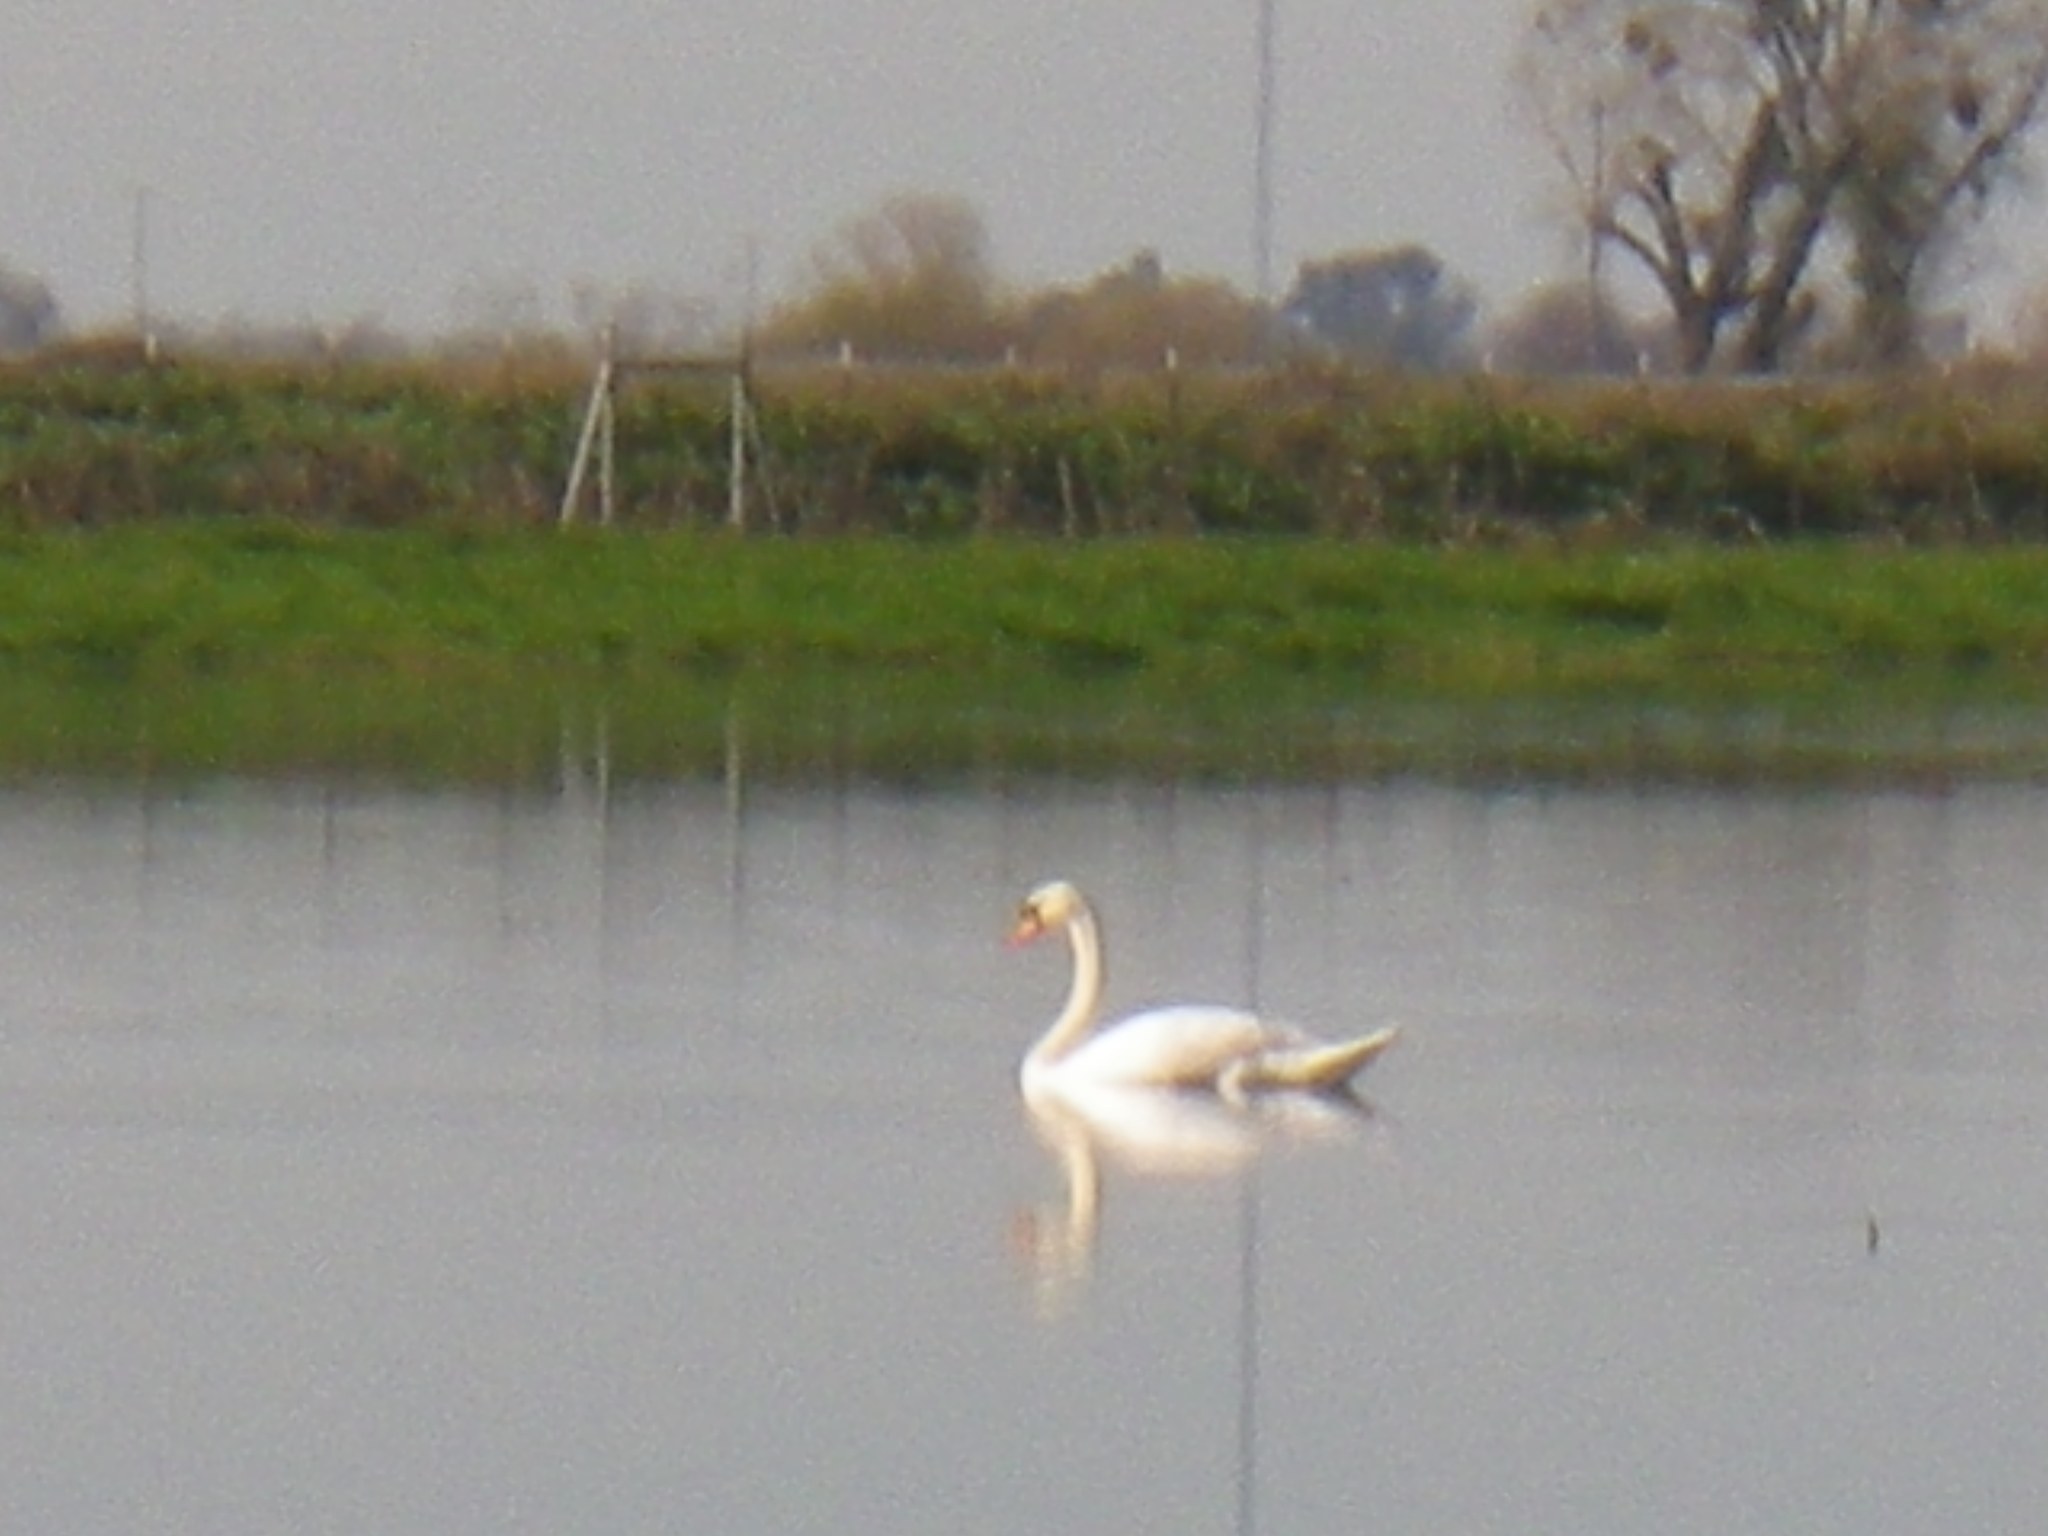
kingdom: Animalia
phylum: Chordata
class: Aves
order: Anseriformes
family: Anatidae
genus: Cygnus
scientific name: Cygnus olor
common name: Mute swan
